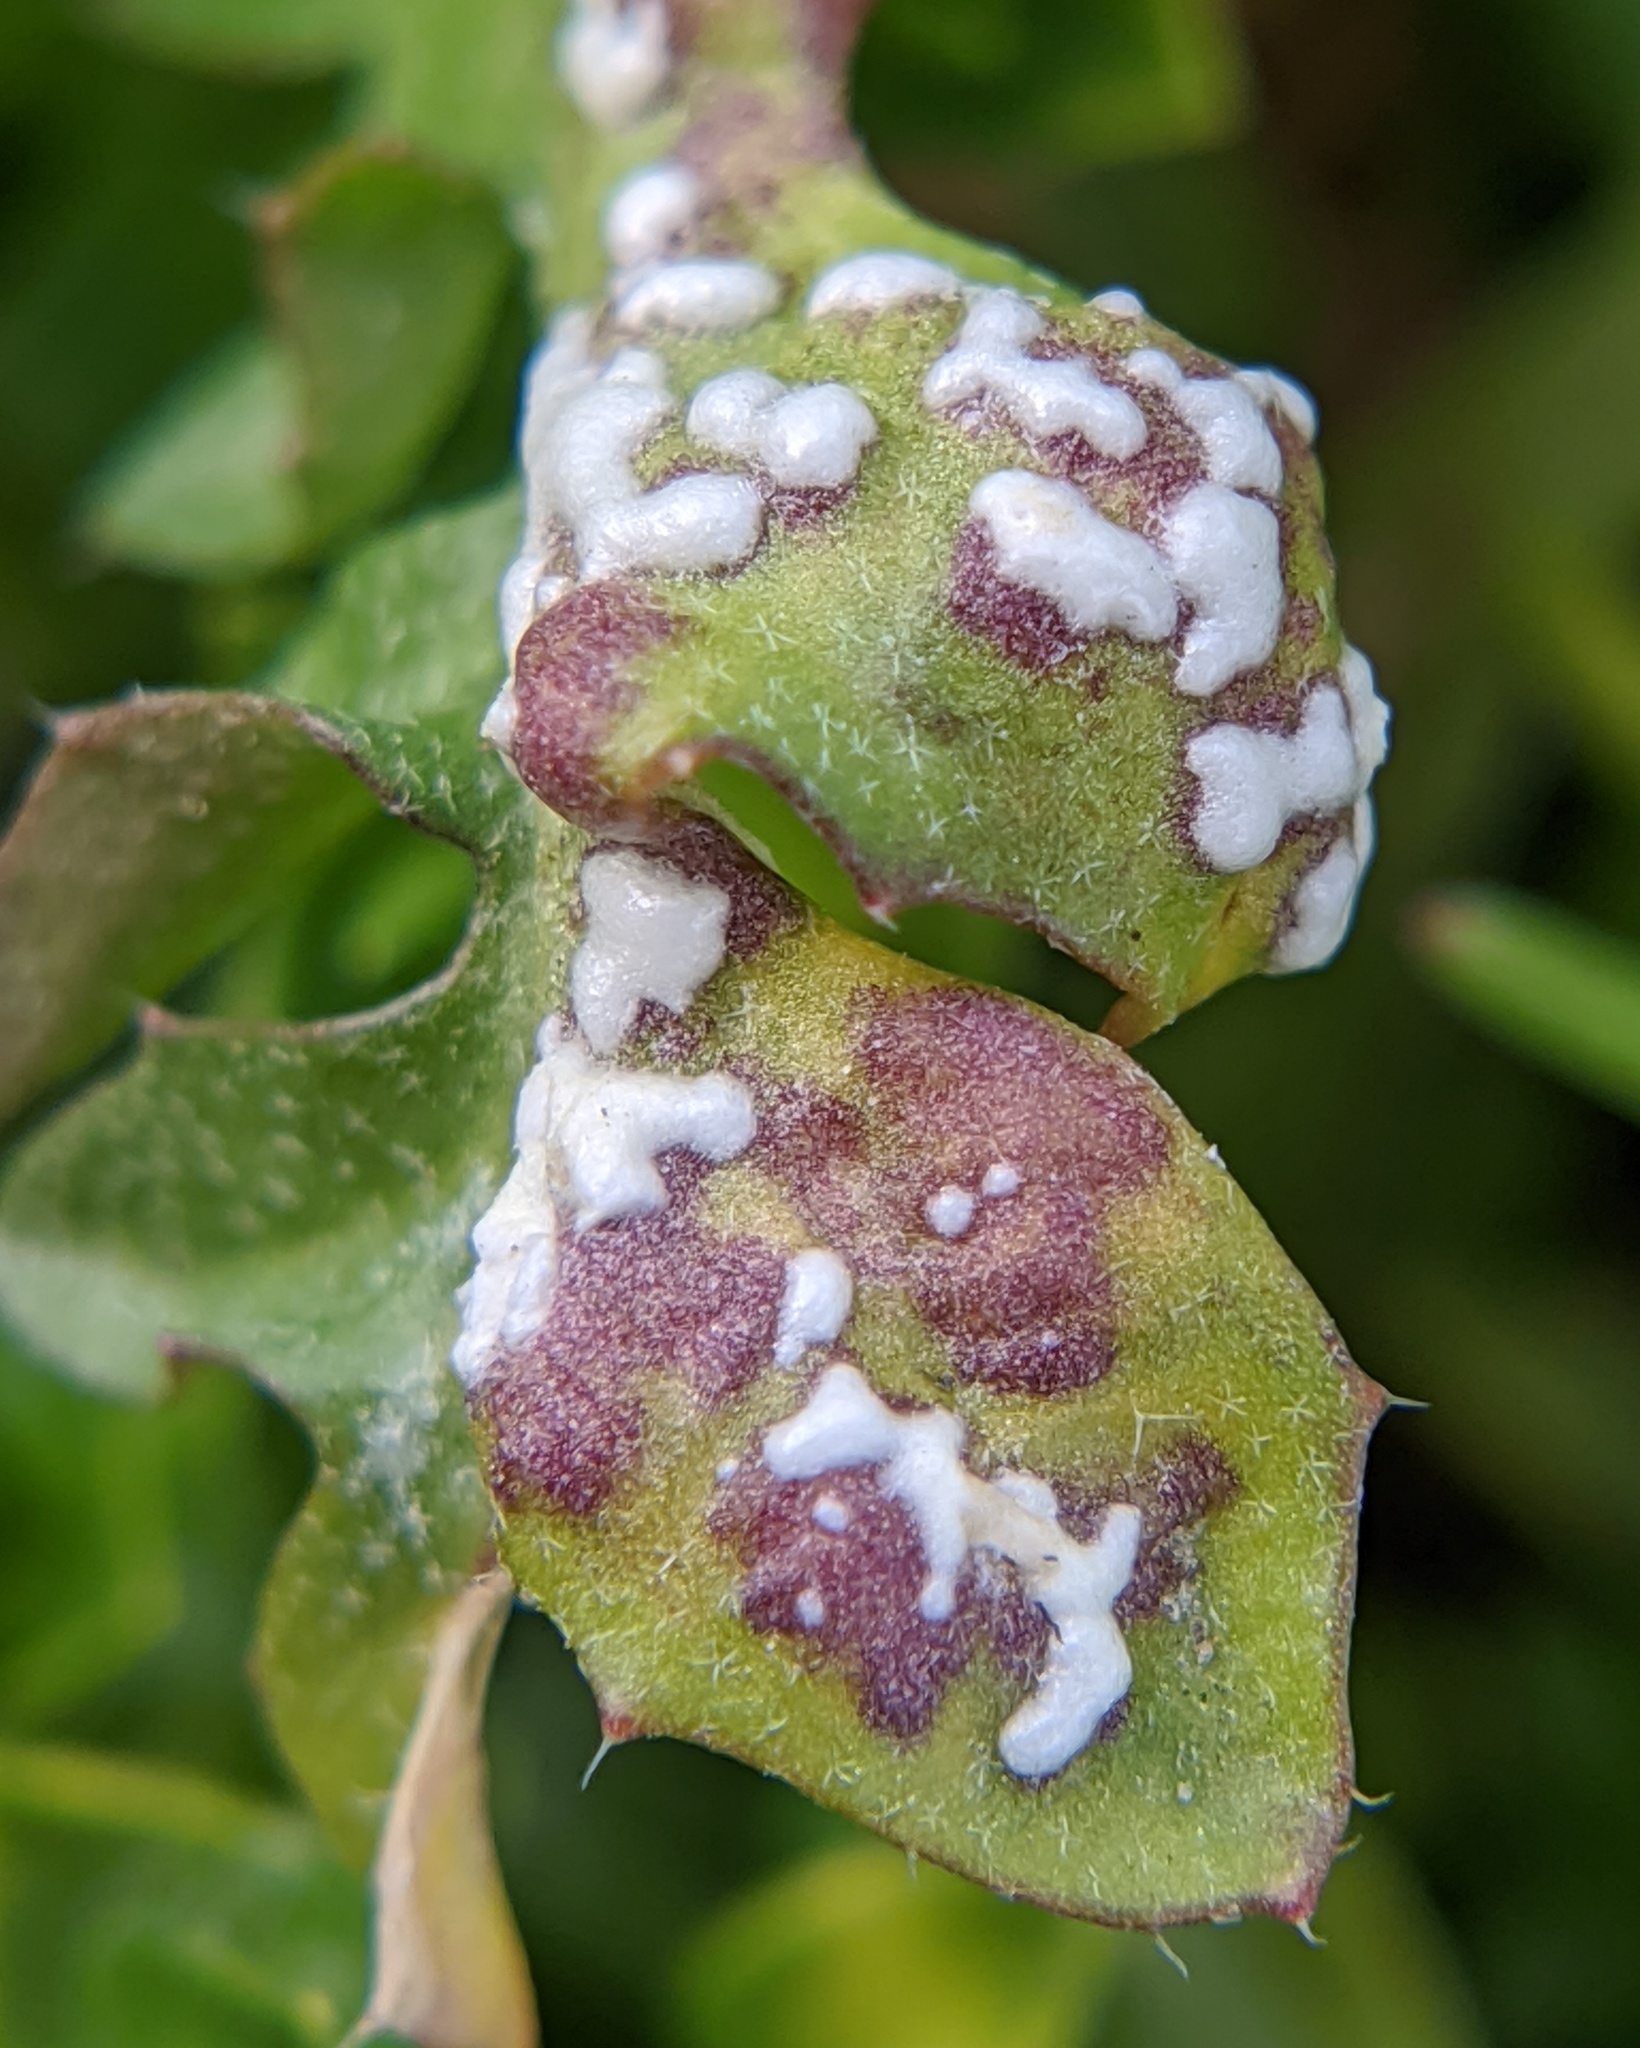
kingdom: Chromista
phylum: Oomycota
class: Peronosporea
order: Albuginales
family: Albuginaceae
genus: Albugo
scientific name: Albugo candida
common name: Crucifer white blister
